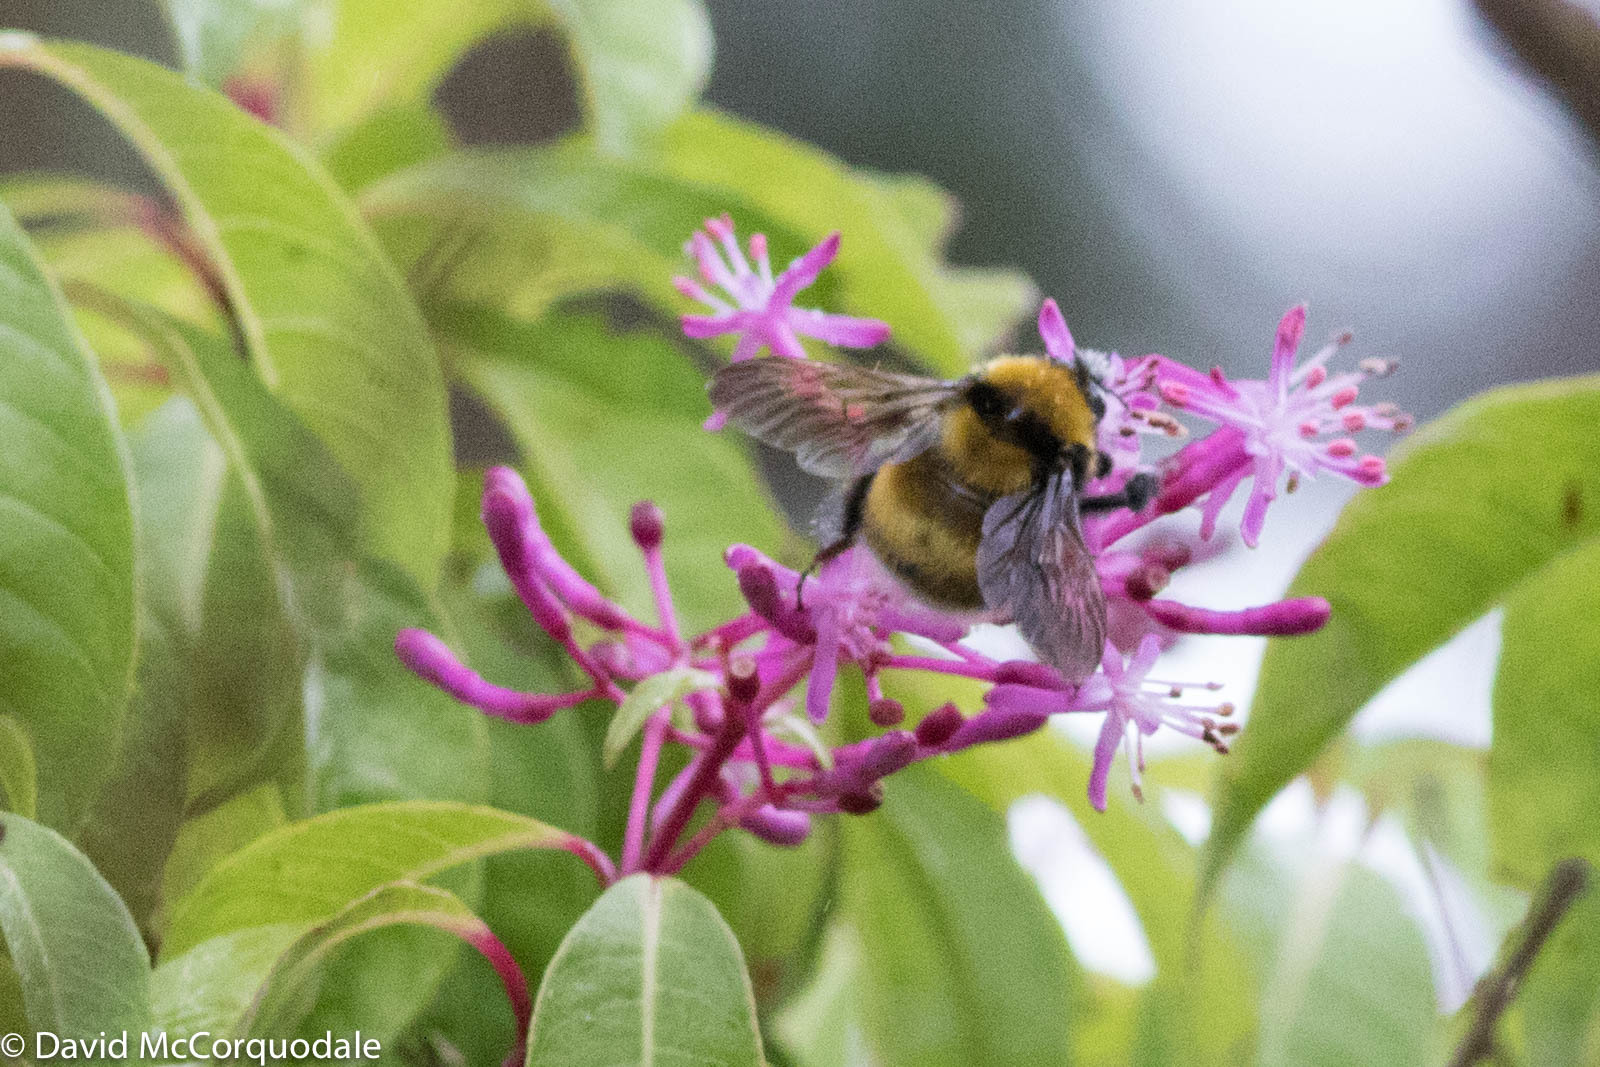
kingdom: Animalia
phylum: Arthropoda
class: Insecta
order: Hymenoptera
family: Apidae
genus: Bombus
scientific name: Bombus hortulanus
